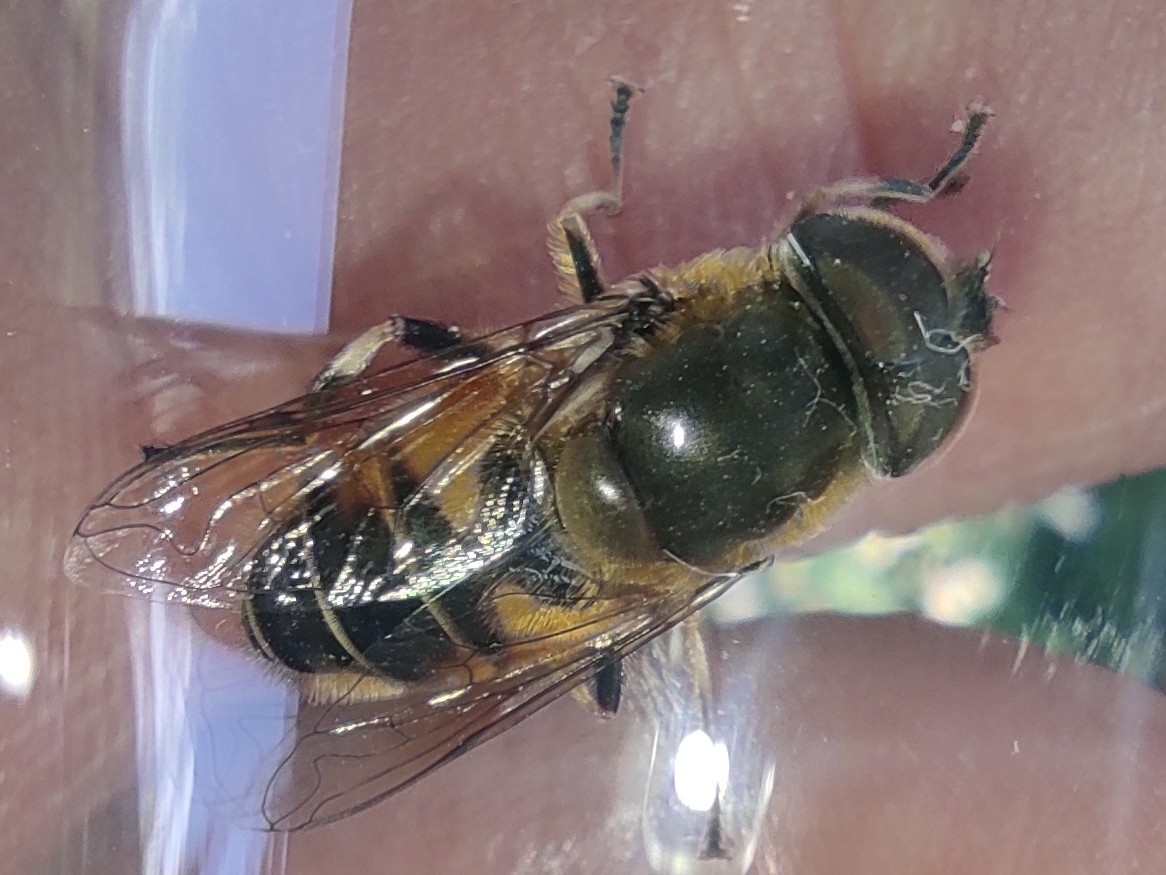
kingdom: Animalia
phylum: Arthropoda
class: Insecta
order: Diptera
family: Syrphidae
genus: Eristalis
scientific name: Eristalis pertinax
